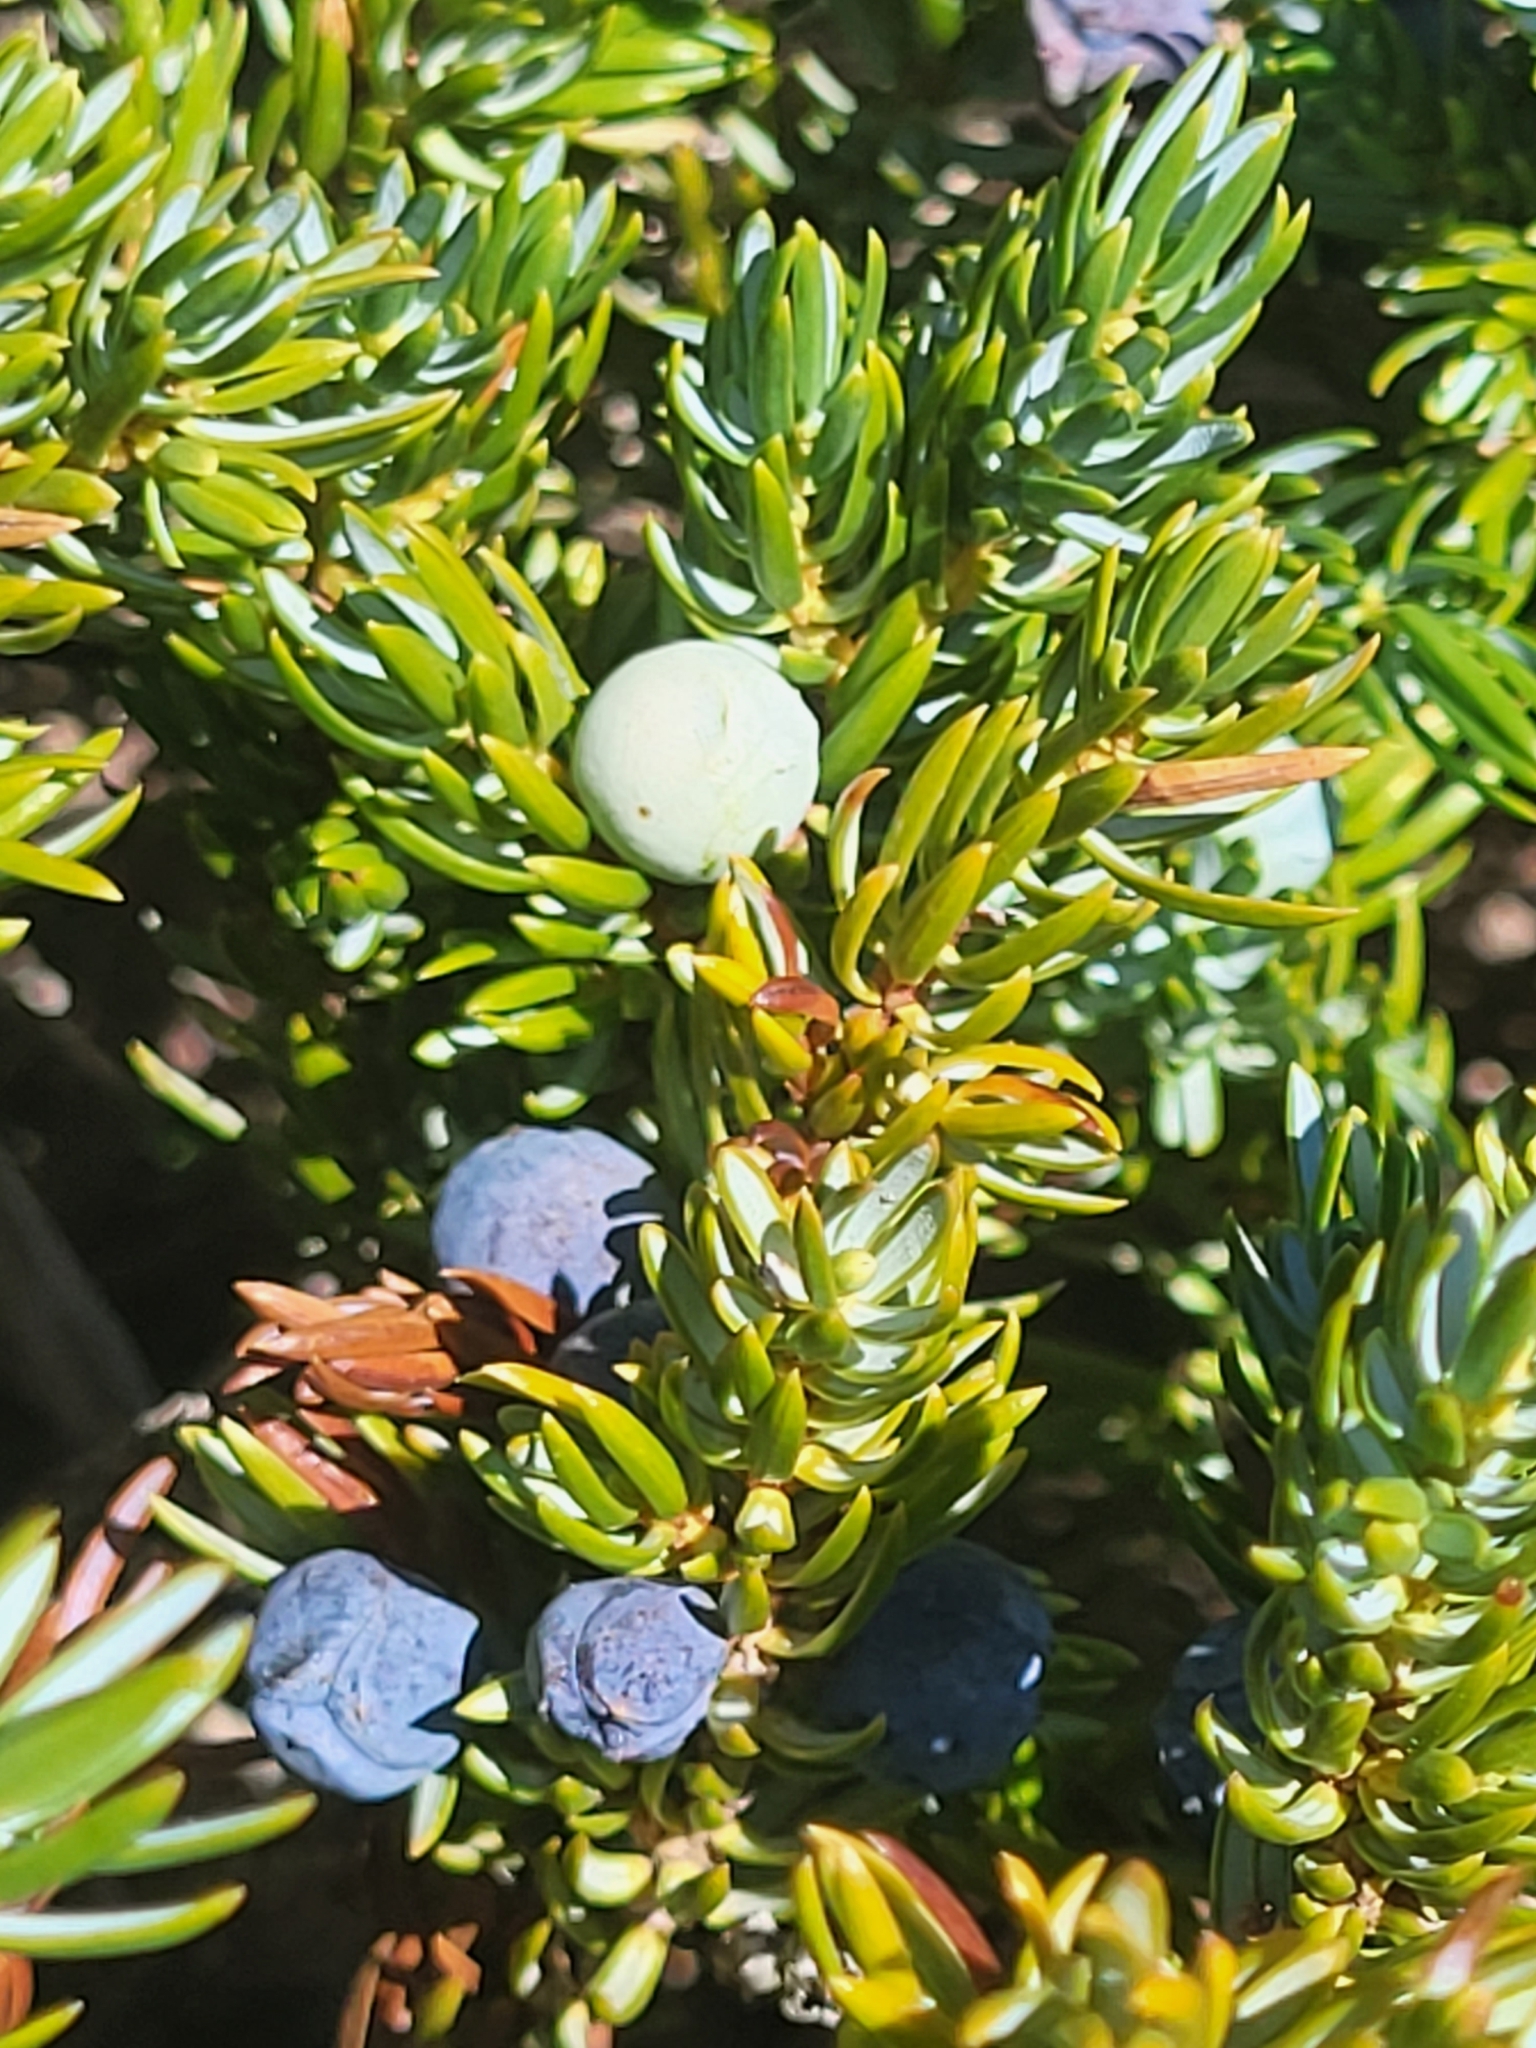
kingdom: Plantae
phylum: Tracheophyta
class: Pinopsida
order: Pinales
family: Cupressaceae
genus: Juniperus
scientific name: Juniperus communis
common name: Common juniper
